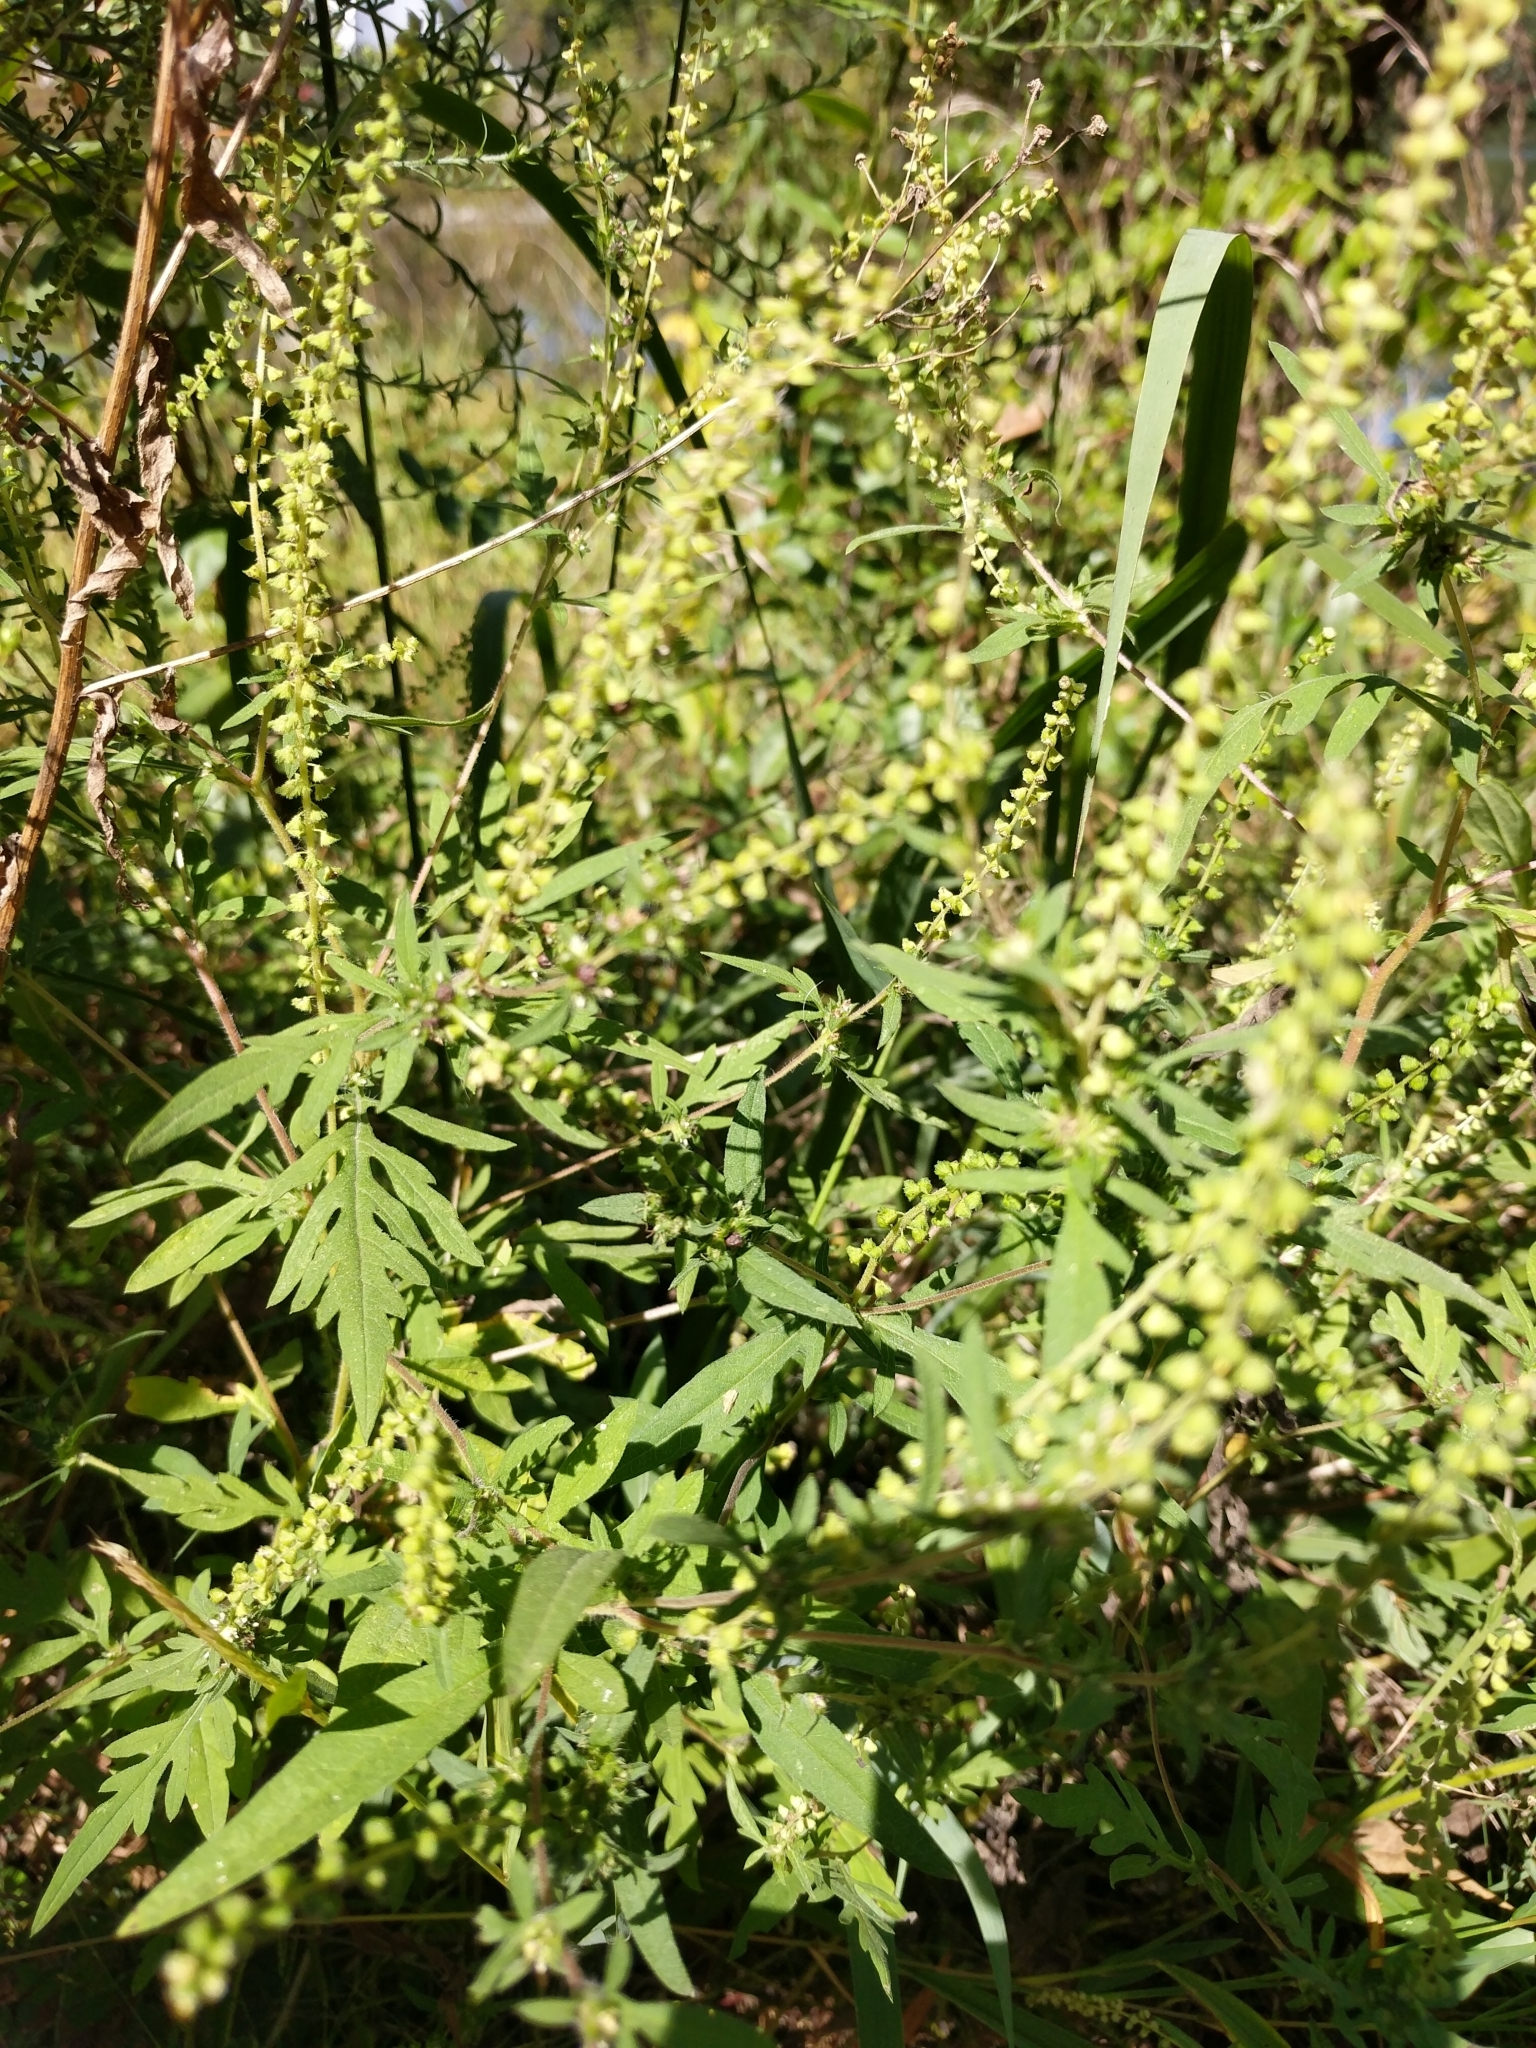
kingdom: Plantae
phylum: Tracheophyta
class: Magnoliopsida
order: Asterales
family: Asteraceae
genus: Ambrosia
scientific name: Ambrosia artemisiifolia
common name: Annual ragweed
